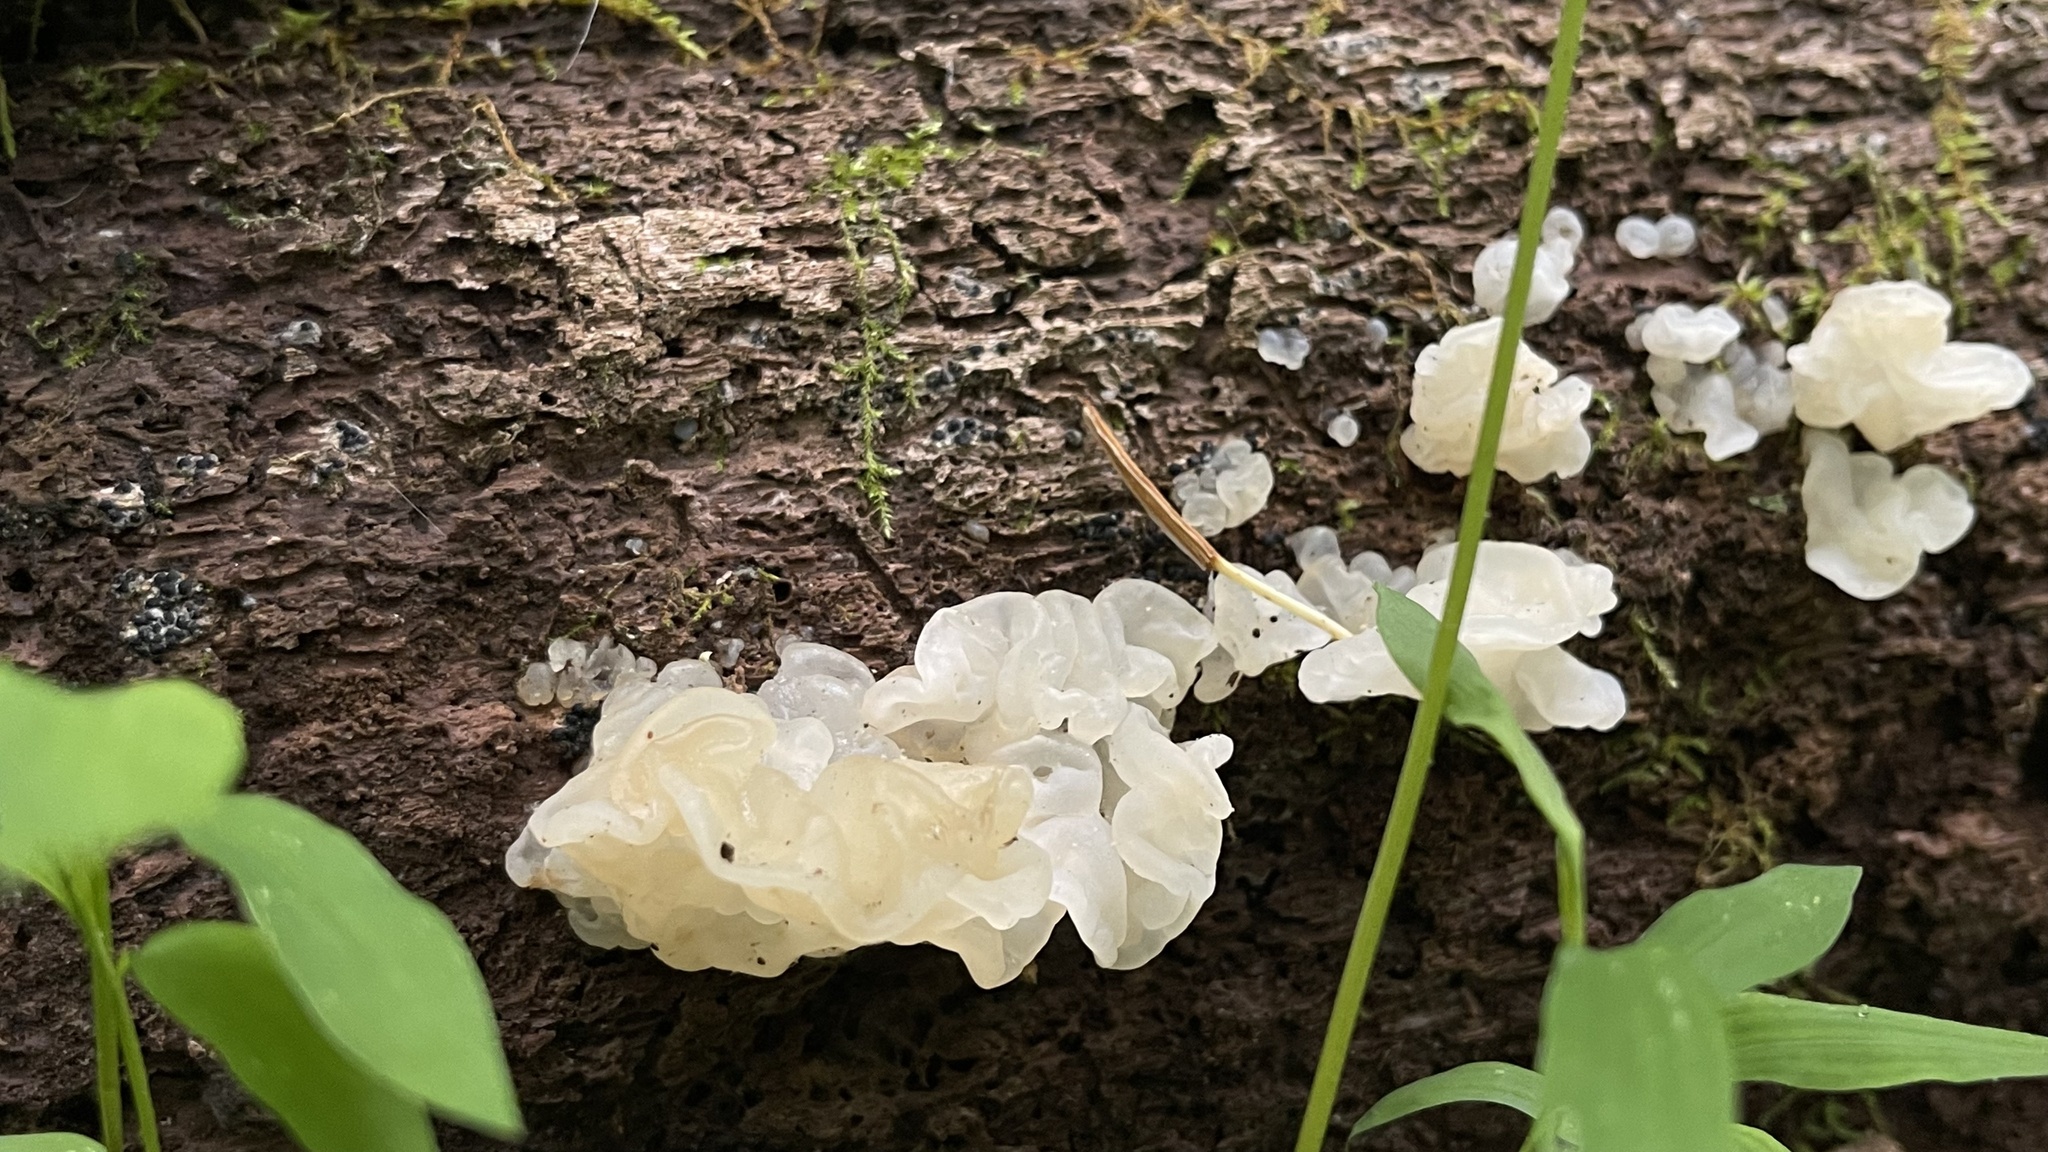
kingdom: Fungi
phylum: Basidiomycota
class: Agaricomycetes
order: Auriculariales
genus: Ductifera
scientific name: Ductifera pululahuana
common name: White jelly fungus
